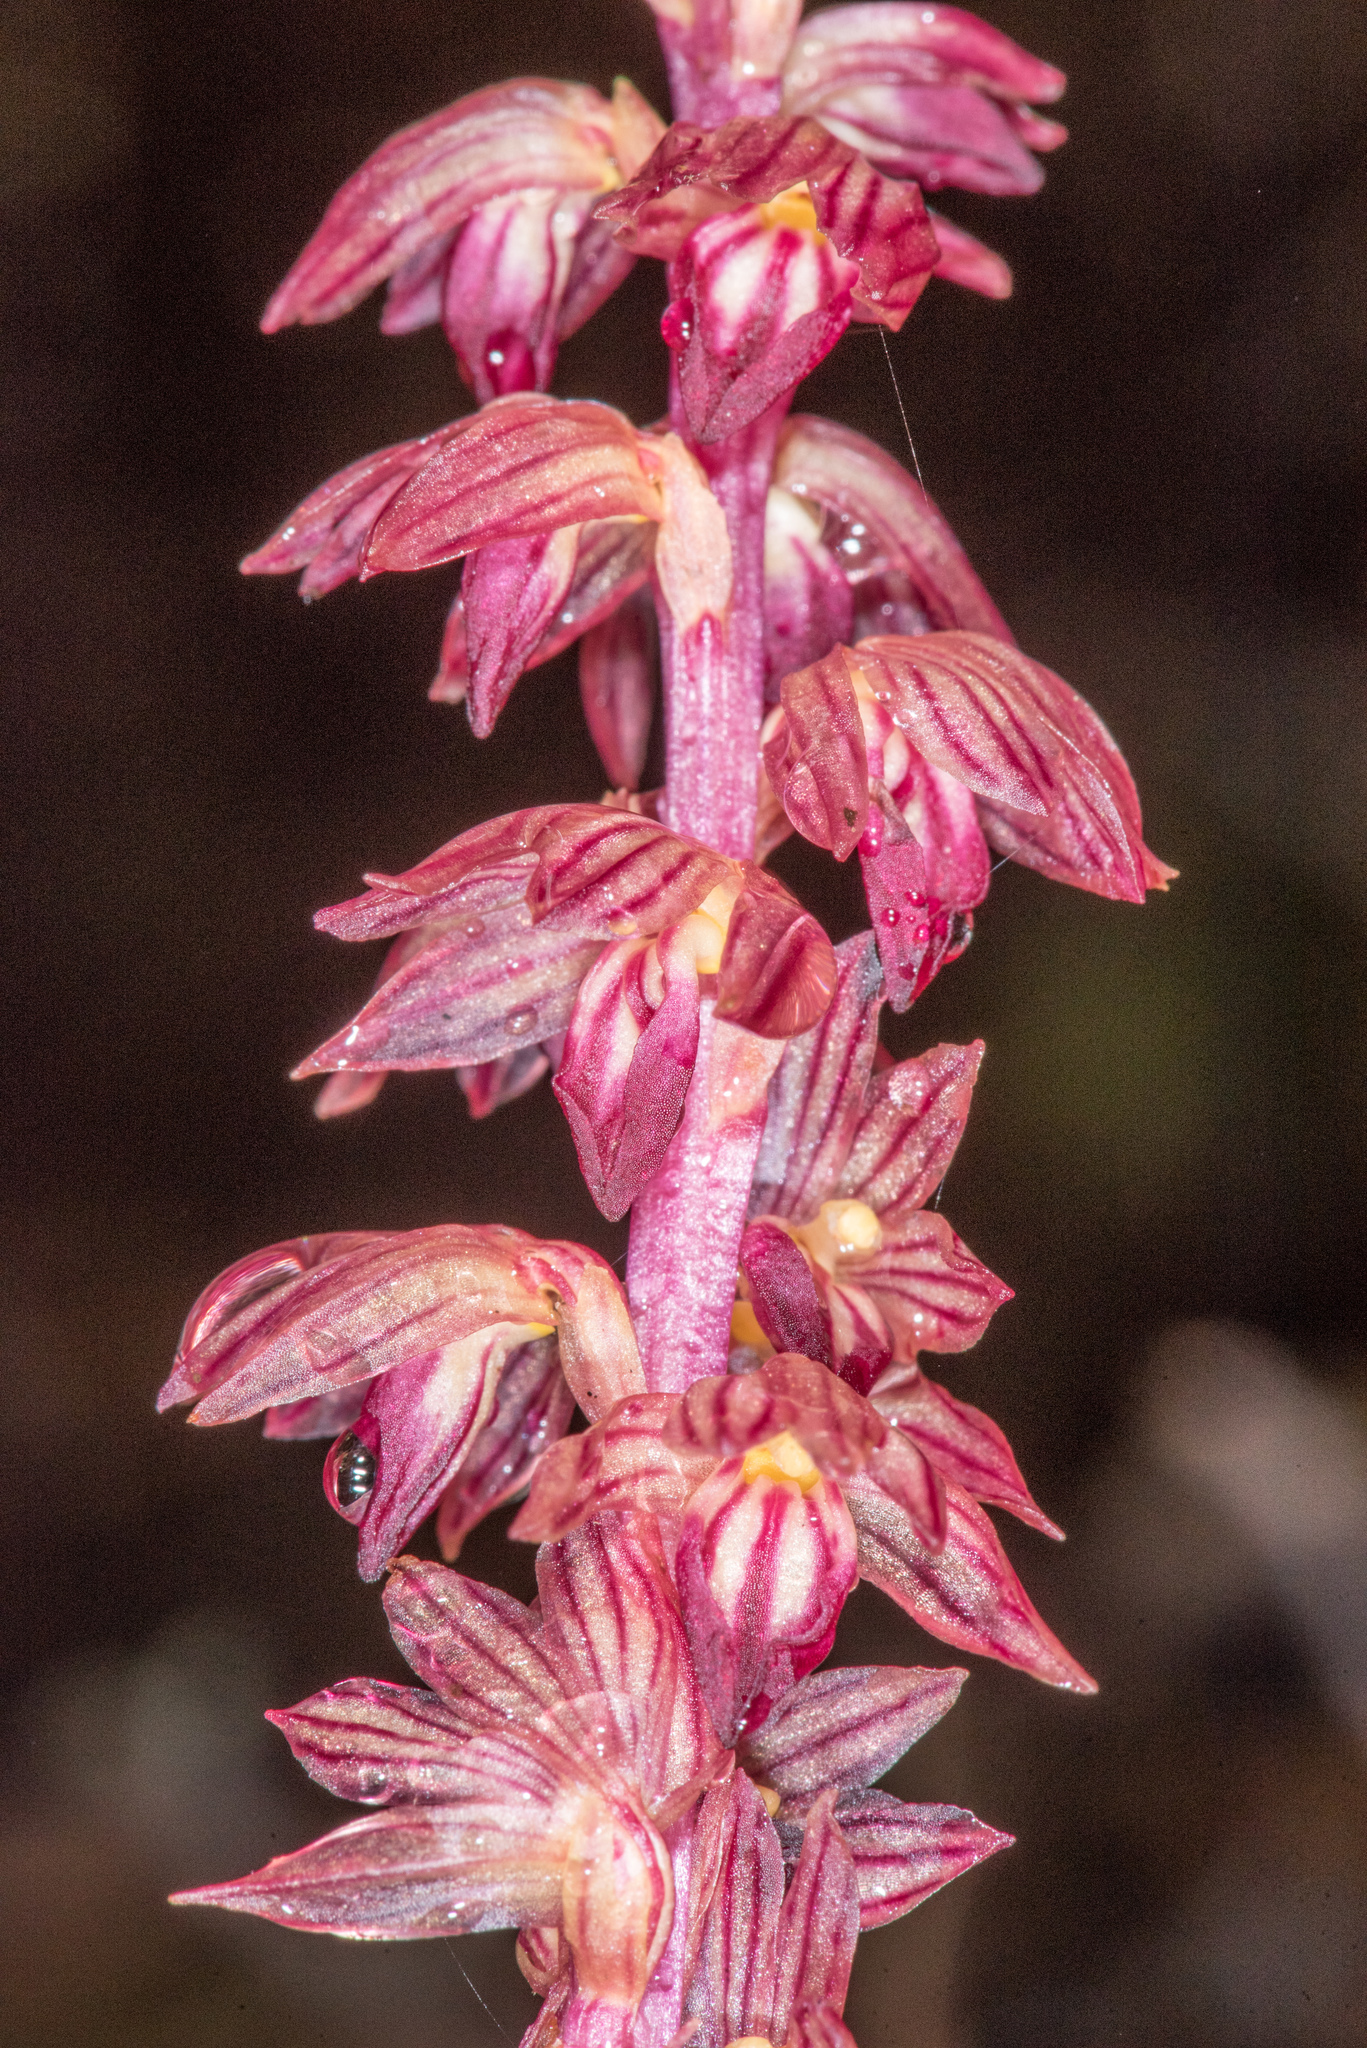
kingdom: Plantae
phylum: Tracheophyta
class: Liliopsida
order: Asparagales
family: Orchidaceae
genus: Corallorhiza
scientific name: Corallorhiza striata
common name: Hooded coralroot
